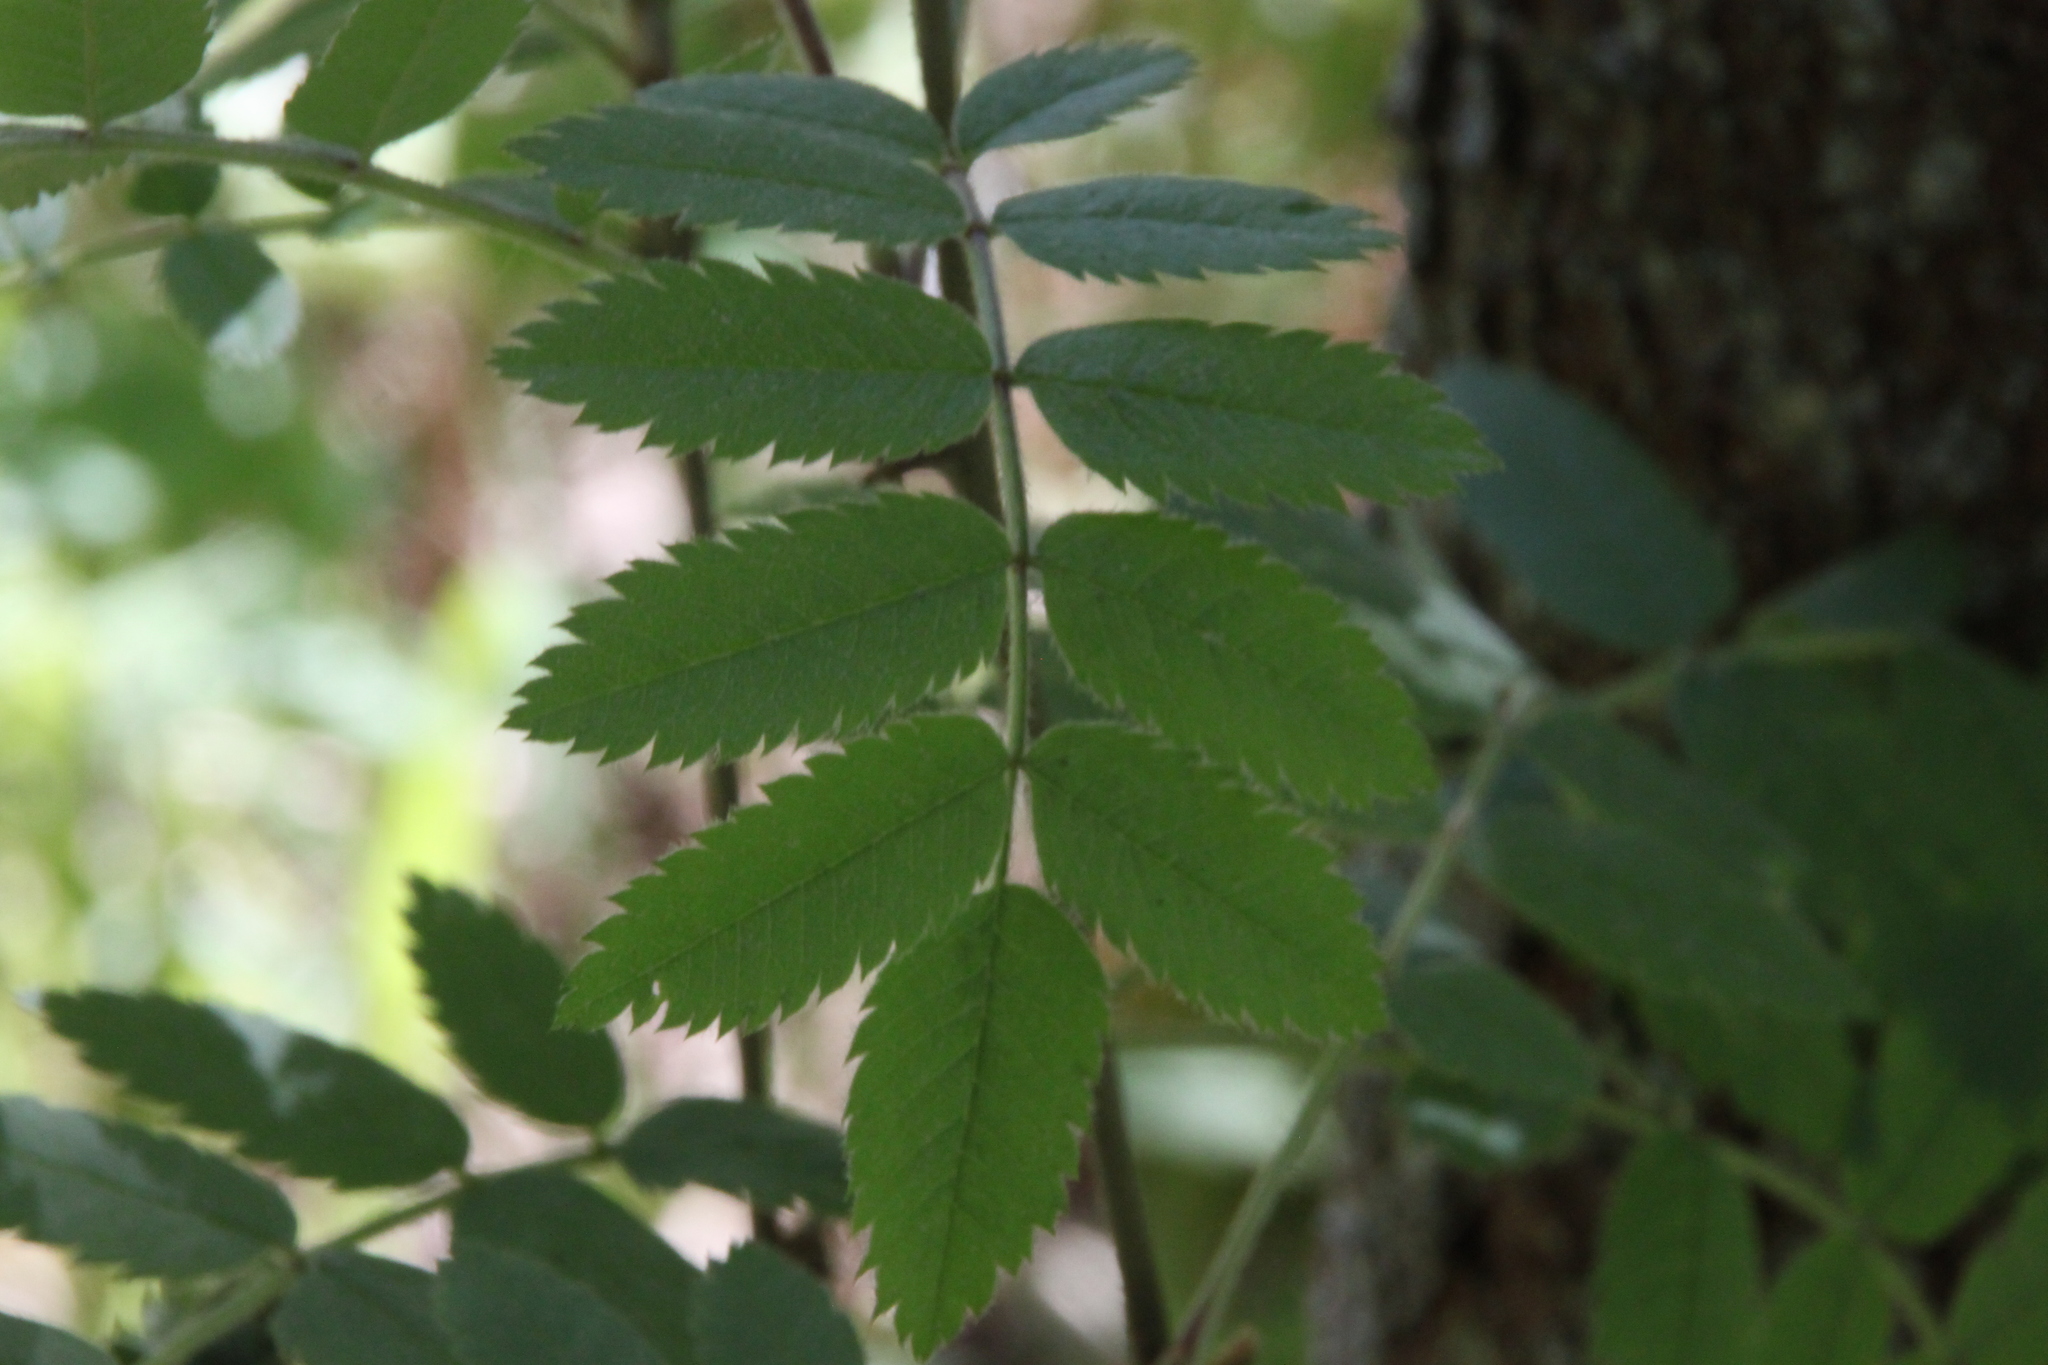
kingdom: Plantae
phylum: Tracheophyta
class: Magnoliopsida
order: Rosales
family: Rosaceae
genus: Sorbus
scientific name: Sorbus aucuparia
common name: Rowan
